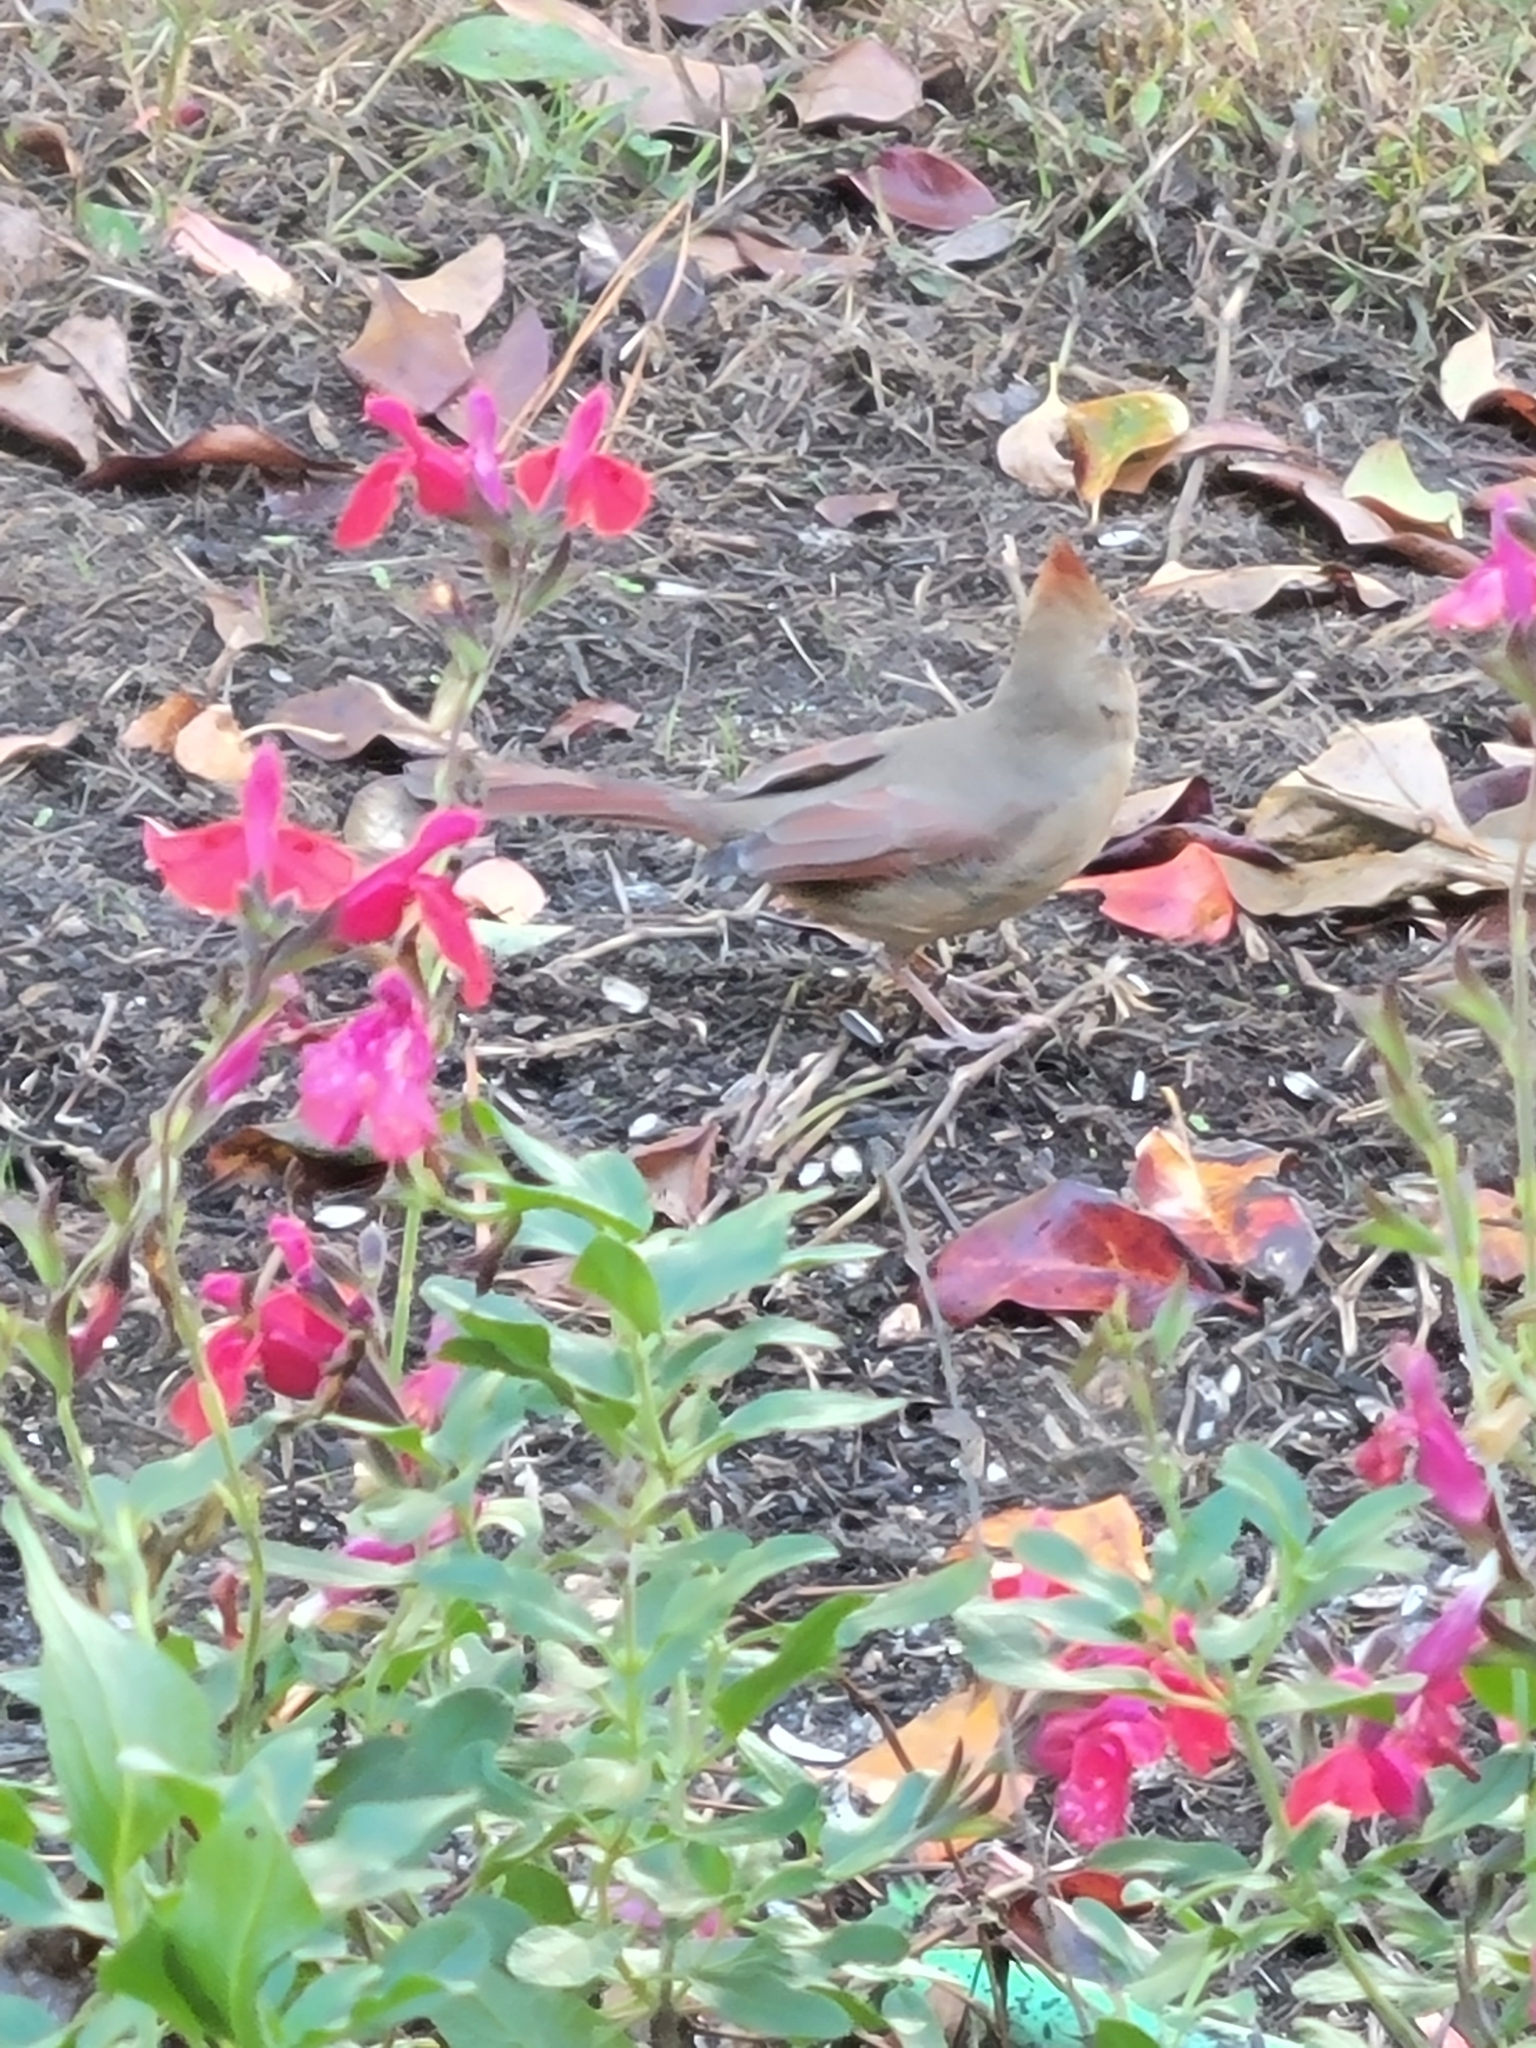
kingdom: Animalia
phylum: Chordata
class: Aves
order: Passeriformes
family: Cardinalidae
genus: Cardinalis
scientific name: Cardinalis cardinalis
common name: Northern cardinal
